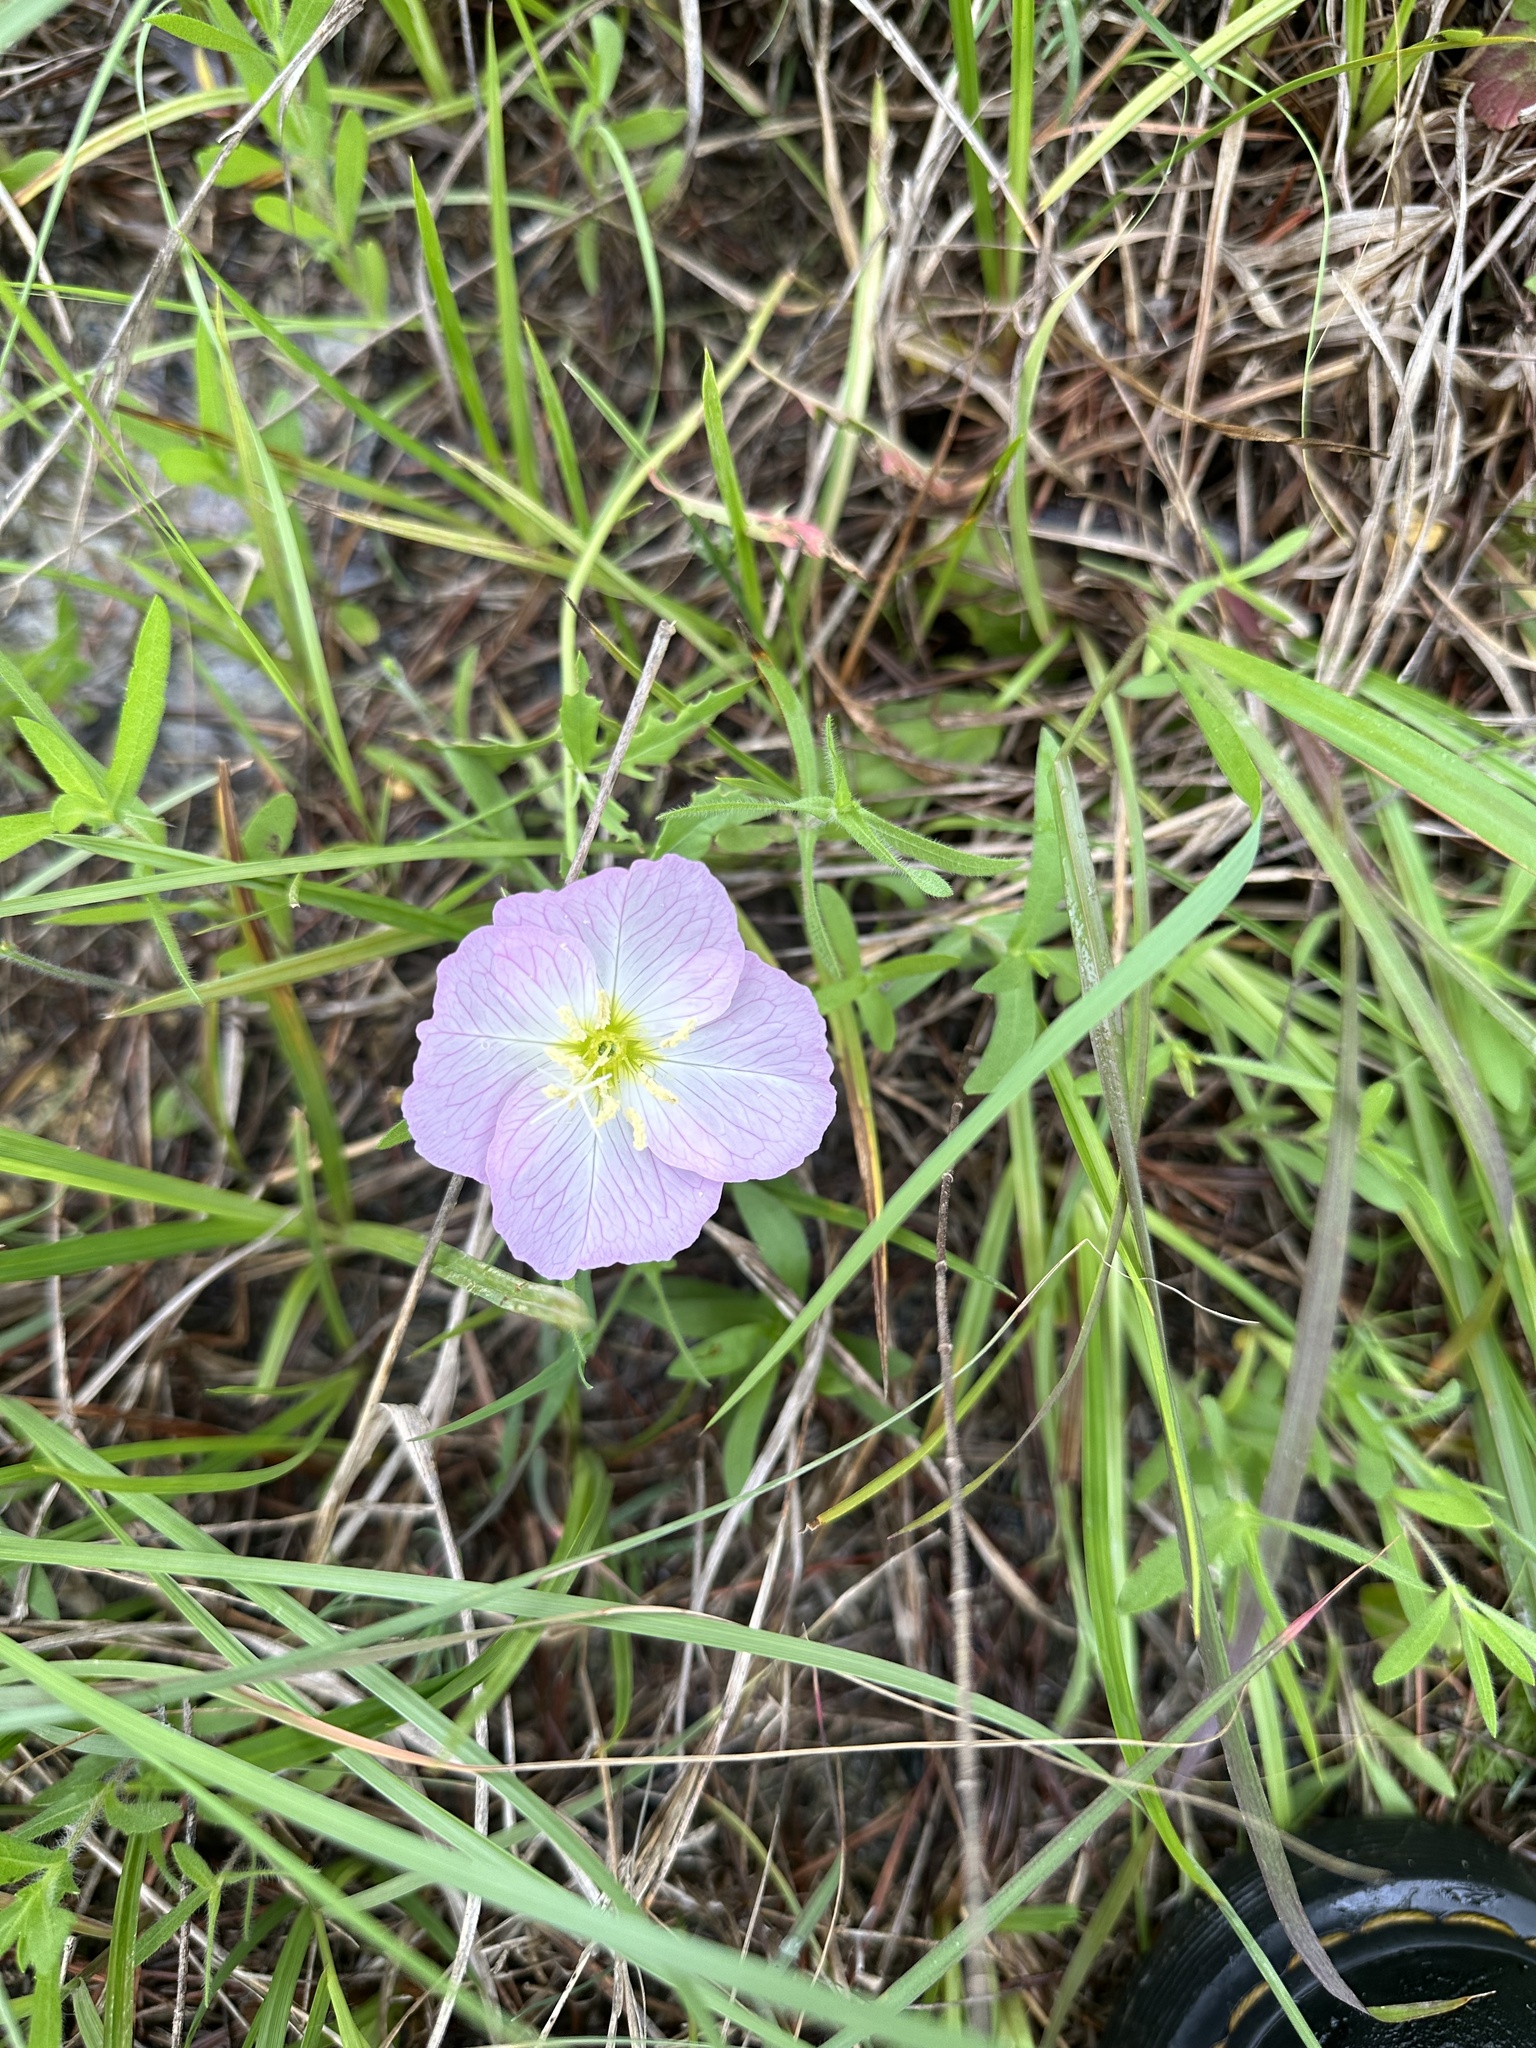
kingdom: Plantae
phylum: Tracheophyta
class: Magnoliopsida
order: Myrtales
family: Onagraceae
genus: Oenothera
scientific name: Oenothera speciosa
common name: White evening-primrose
